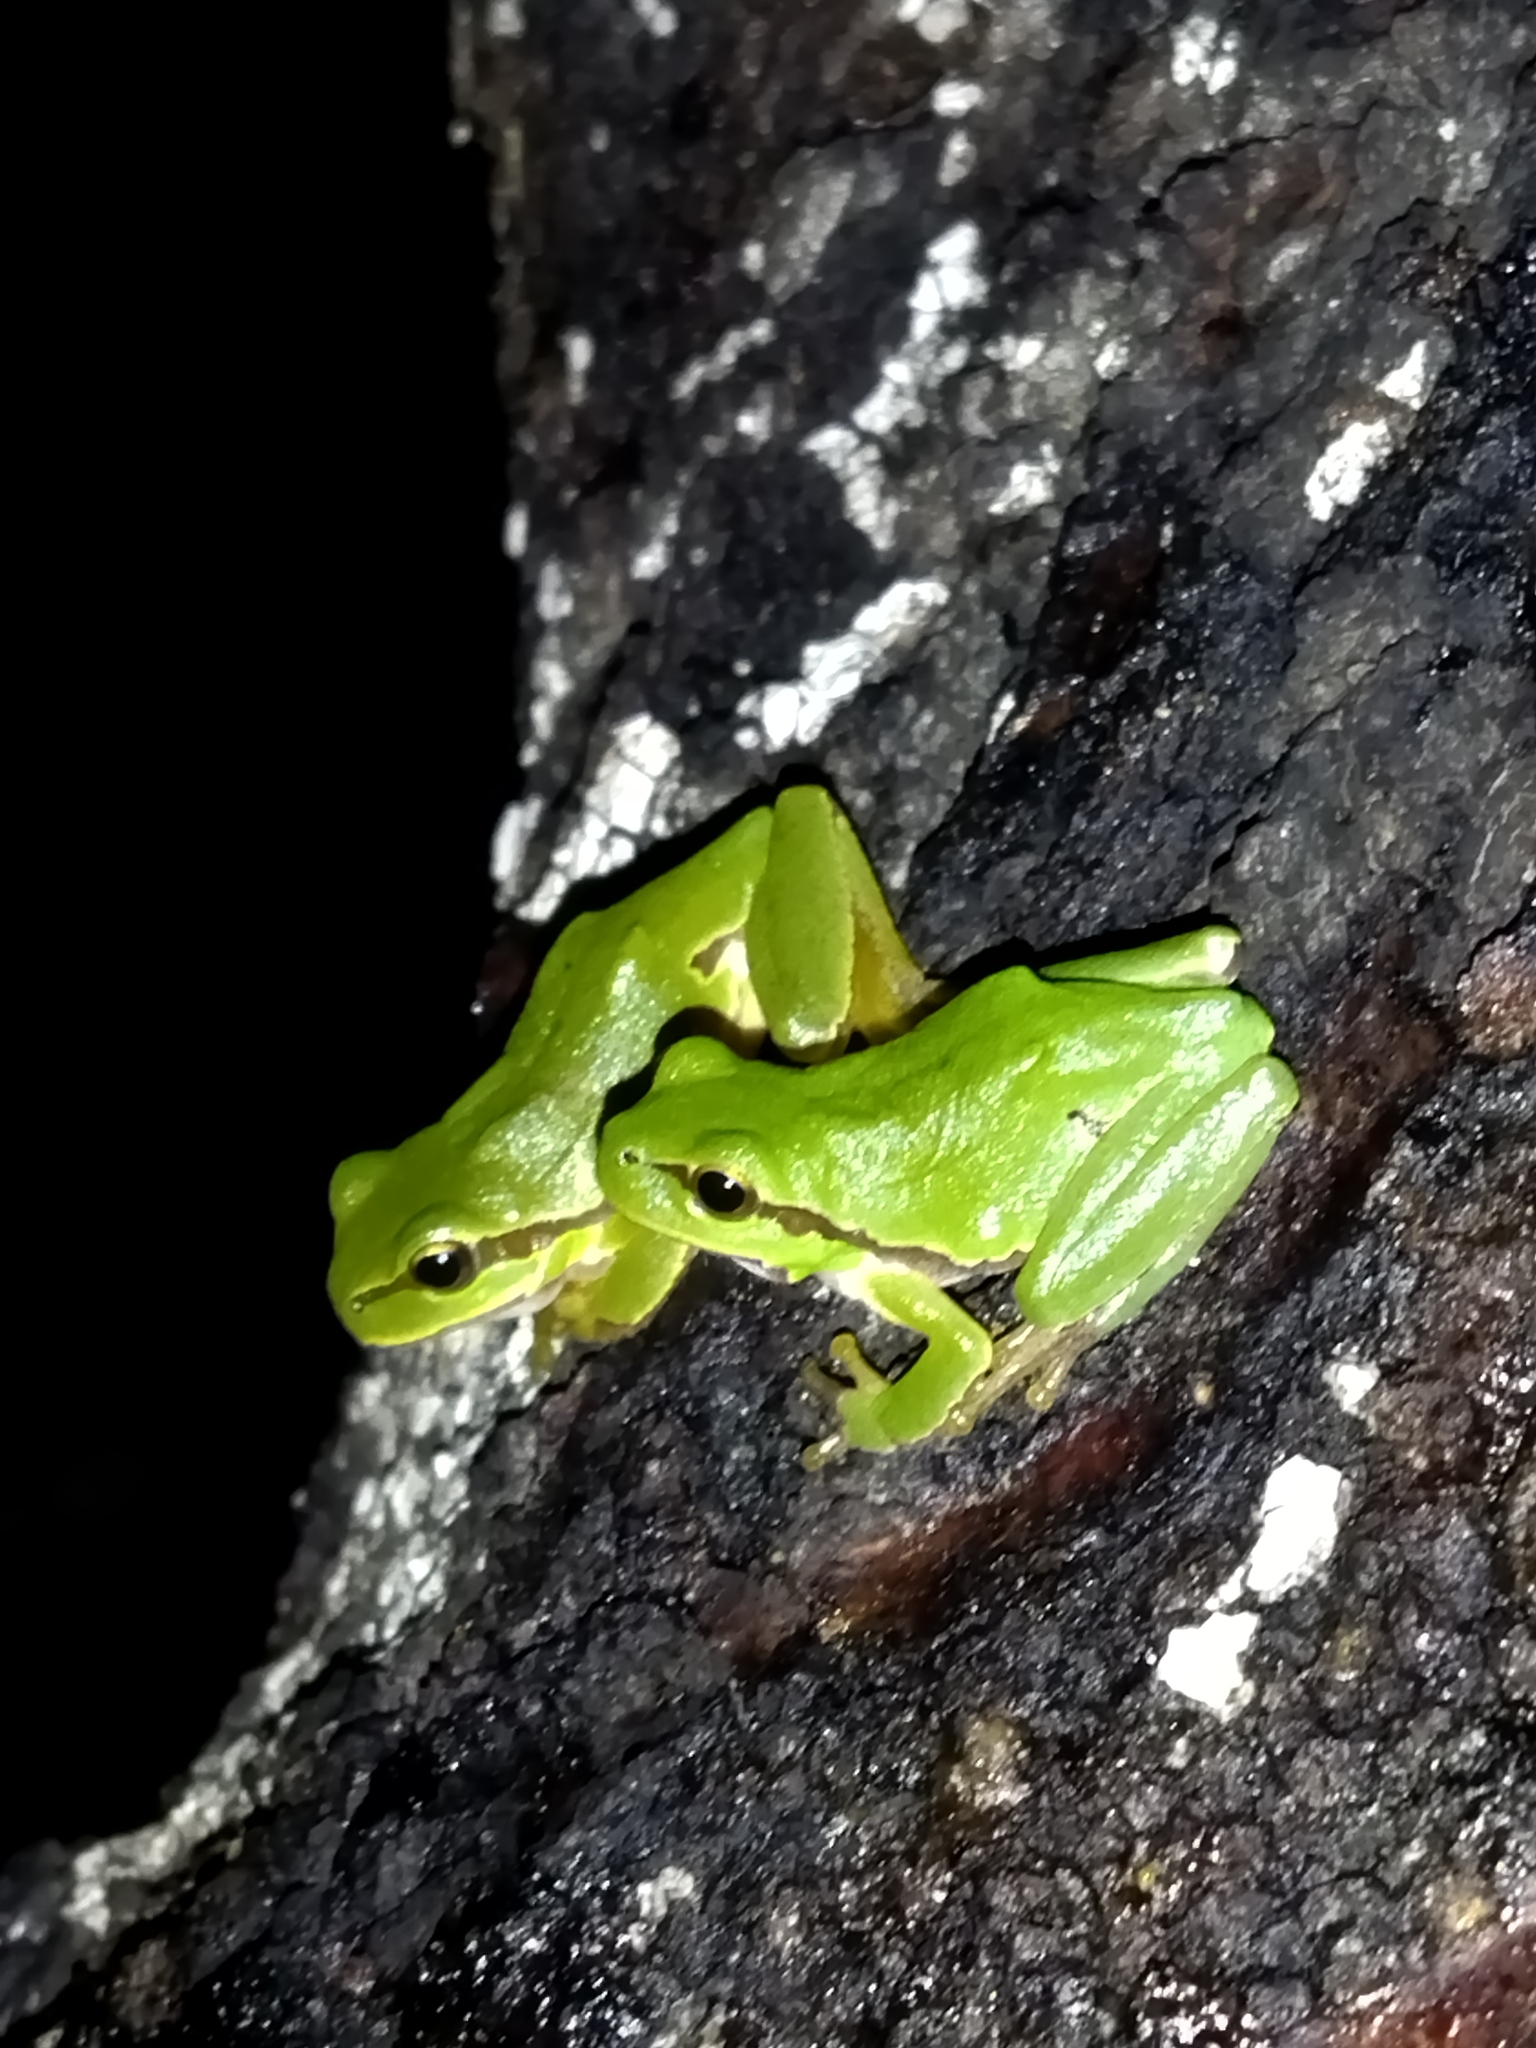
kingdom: Animalia
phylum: Chordata
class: Amphibia
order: Anura
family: Hylidae
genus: Hyla
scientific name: Hyla orientalis
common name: Caucasian treefrog
